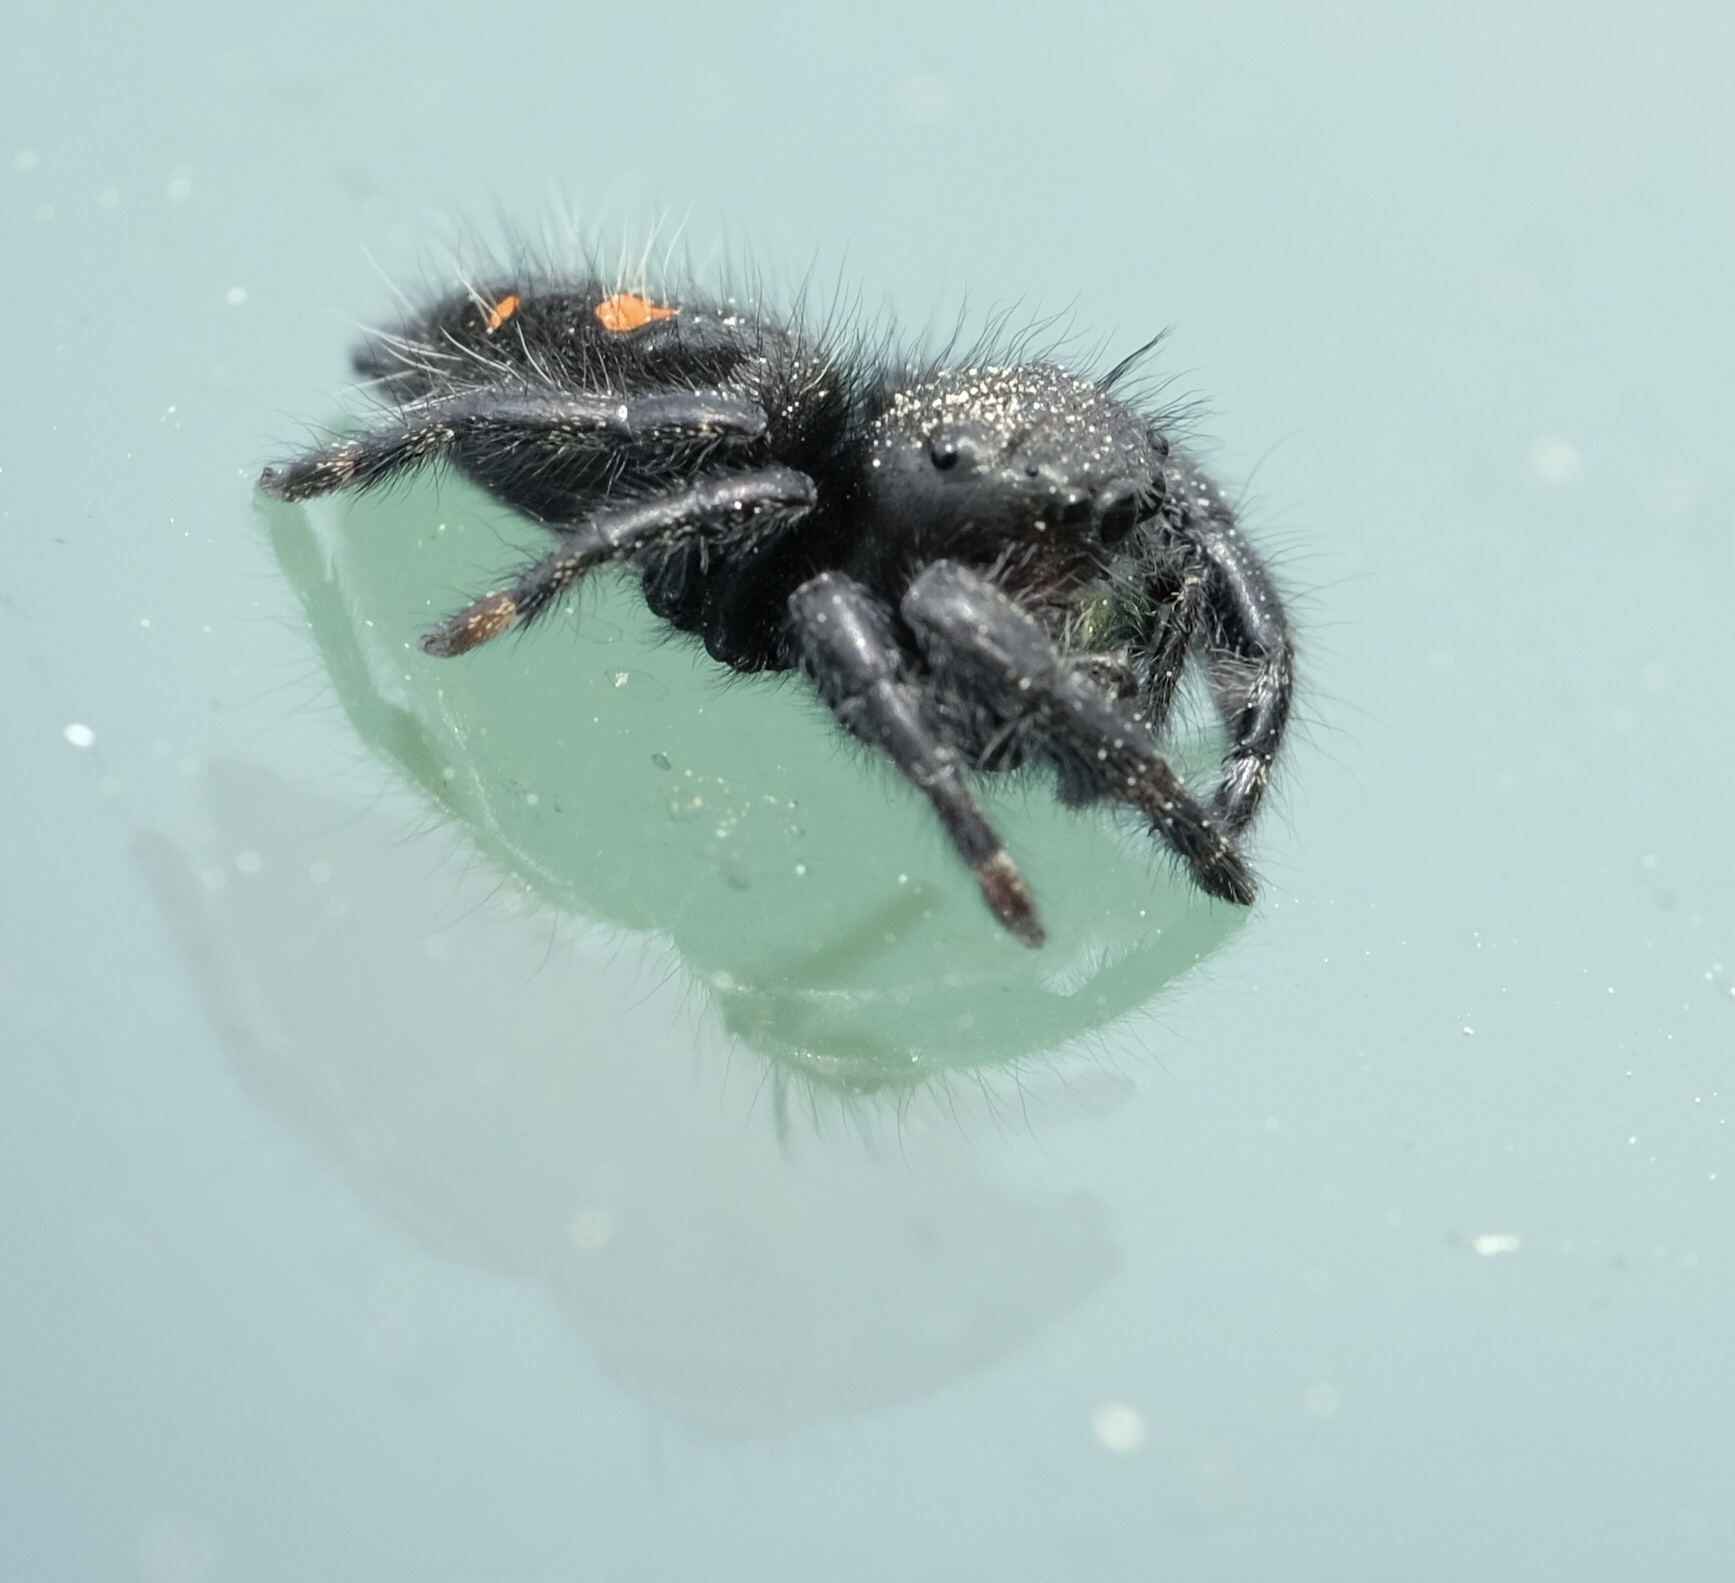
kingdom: Animalia
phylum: Arthropoda
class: Arachnida
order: Araneae
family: Salticidae
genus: Phidippus
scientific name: Phidippus audax
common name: Bold jumper
